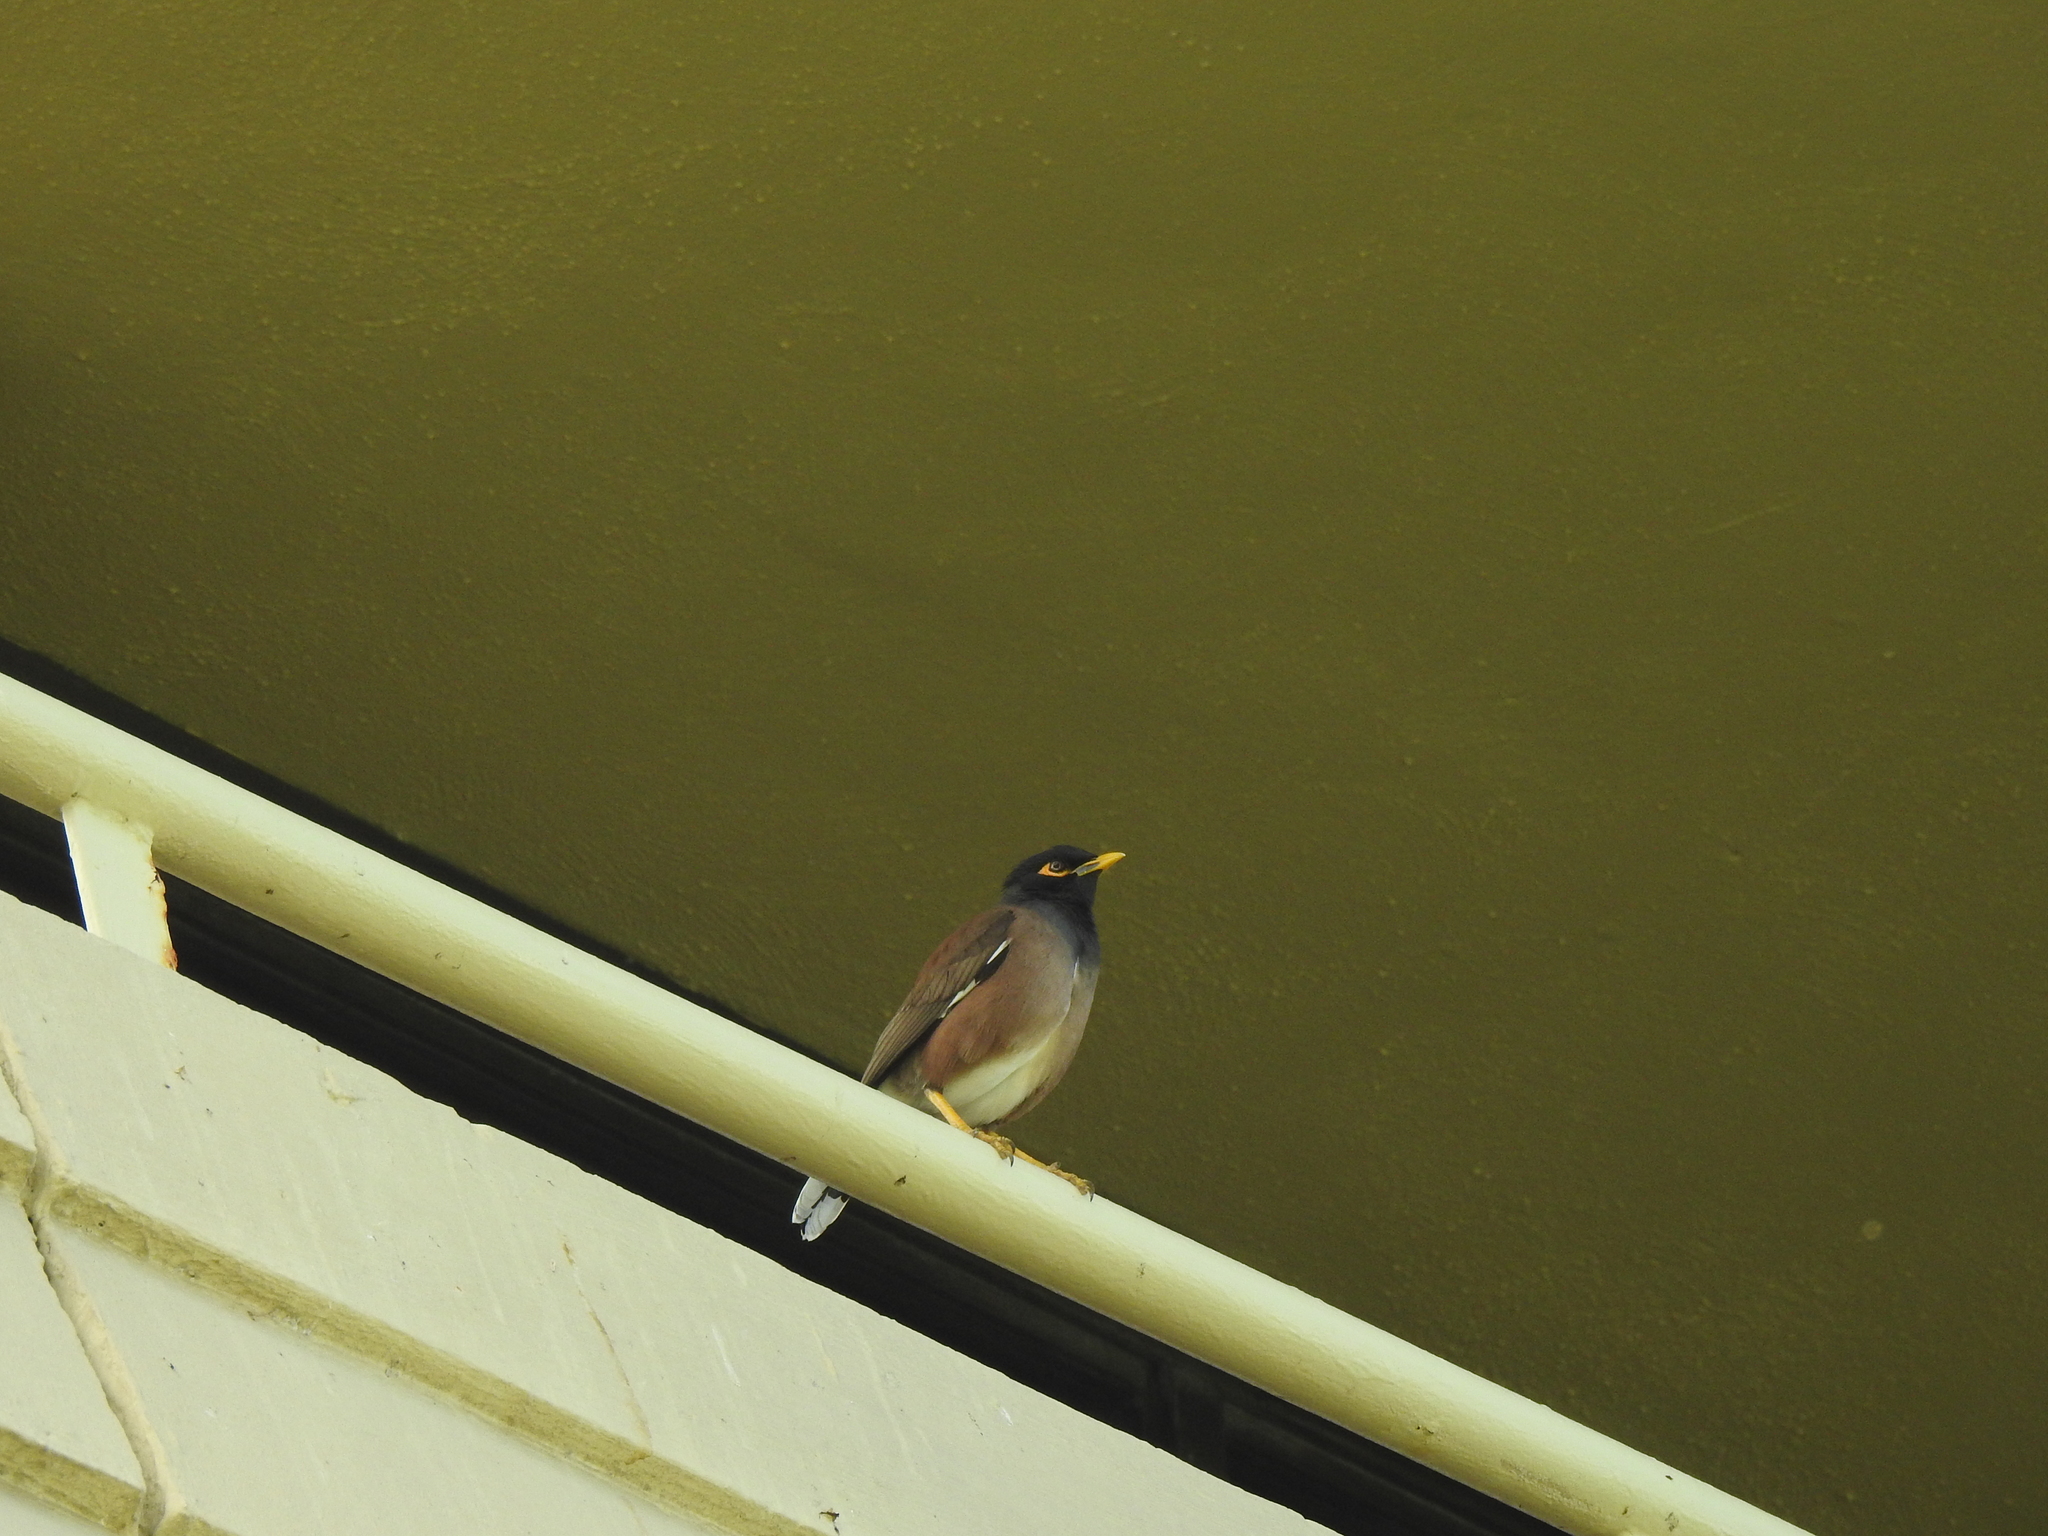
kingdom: Animalia
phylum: Chordata
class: Aves
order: Passeriformes
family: Sturnidae
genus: Acridotheres
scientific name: Acridotheres tristis
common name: Common myna
